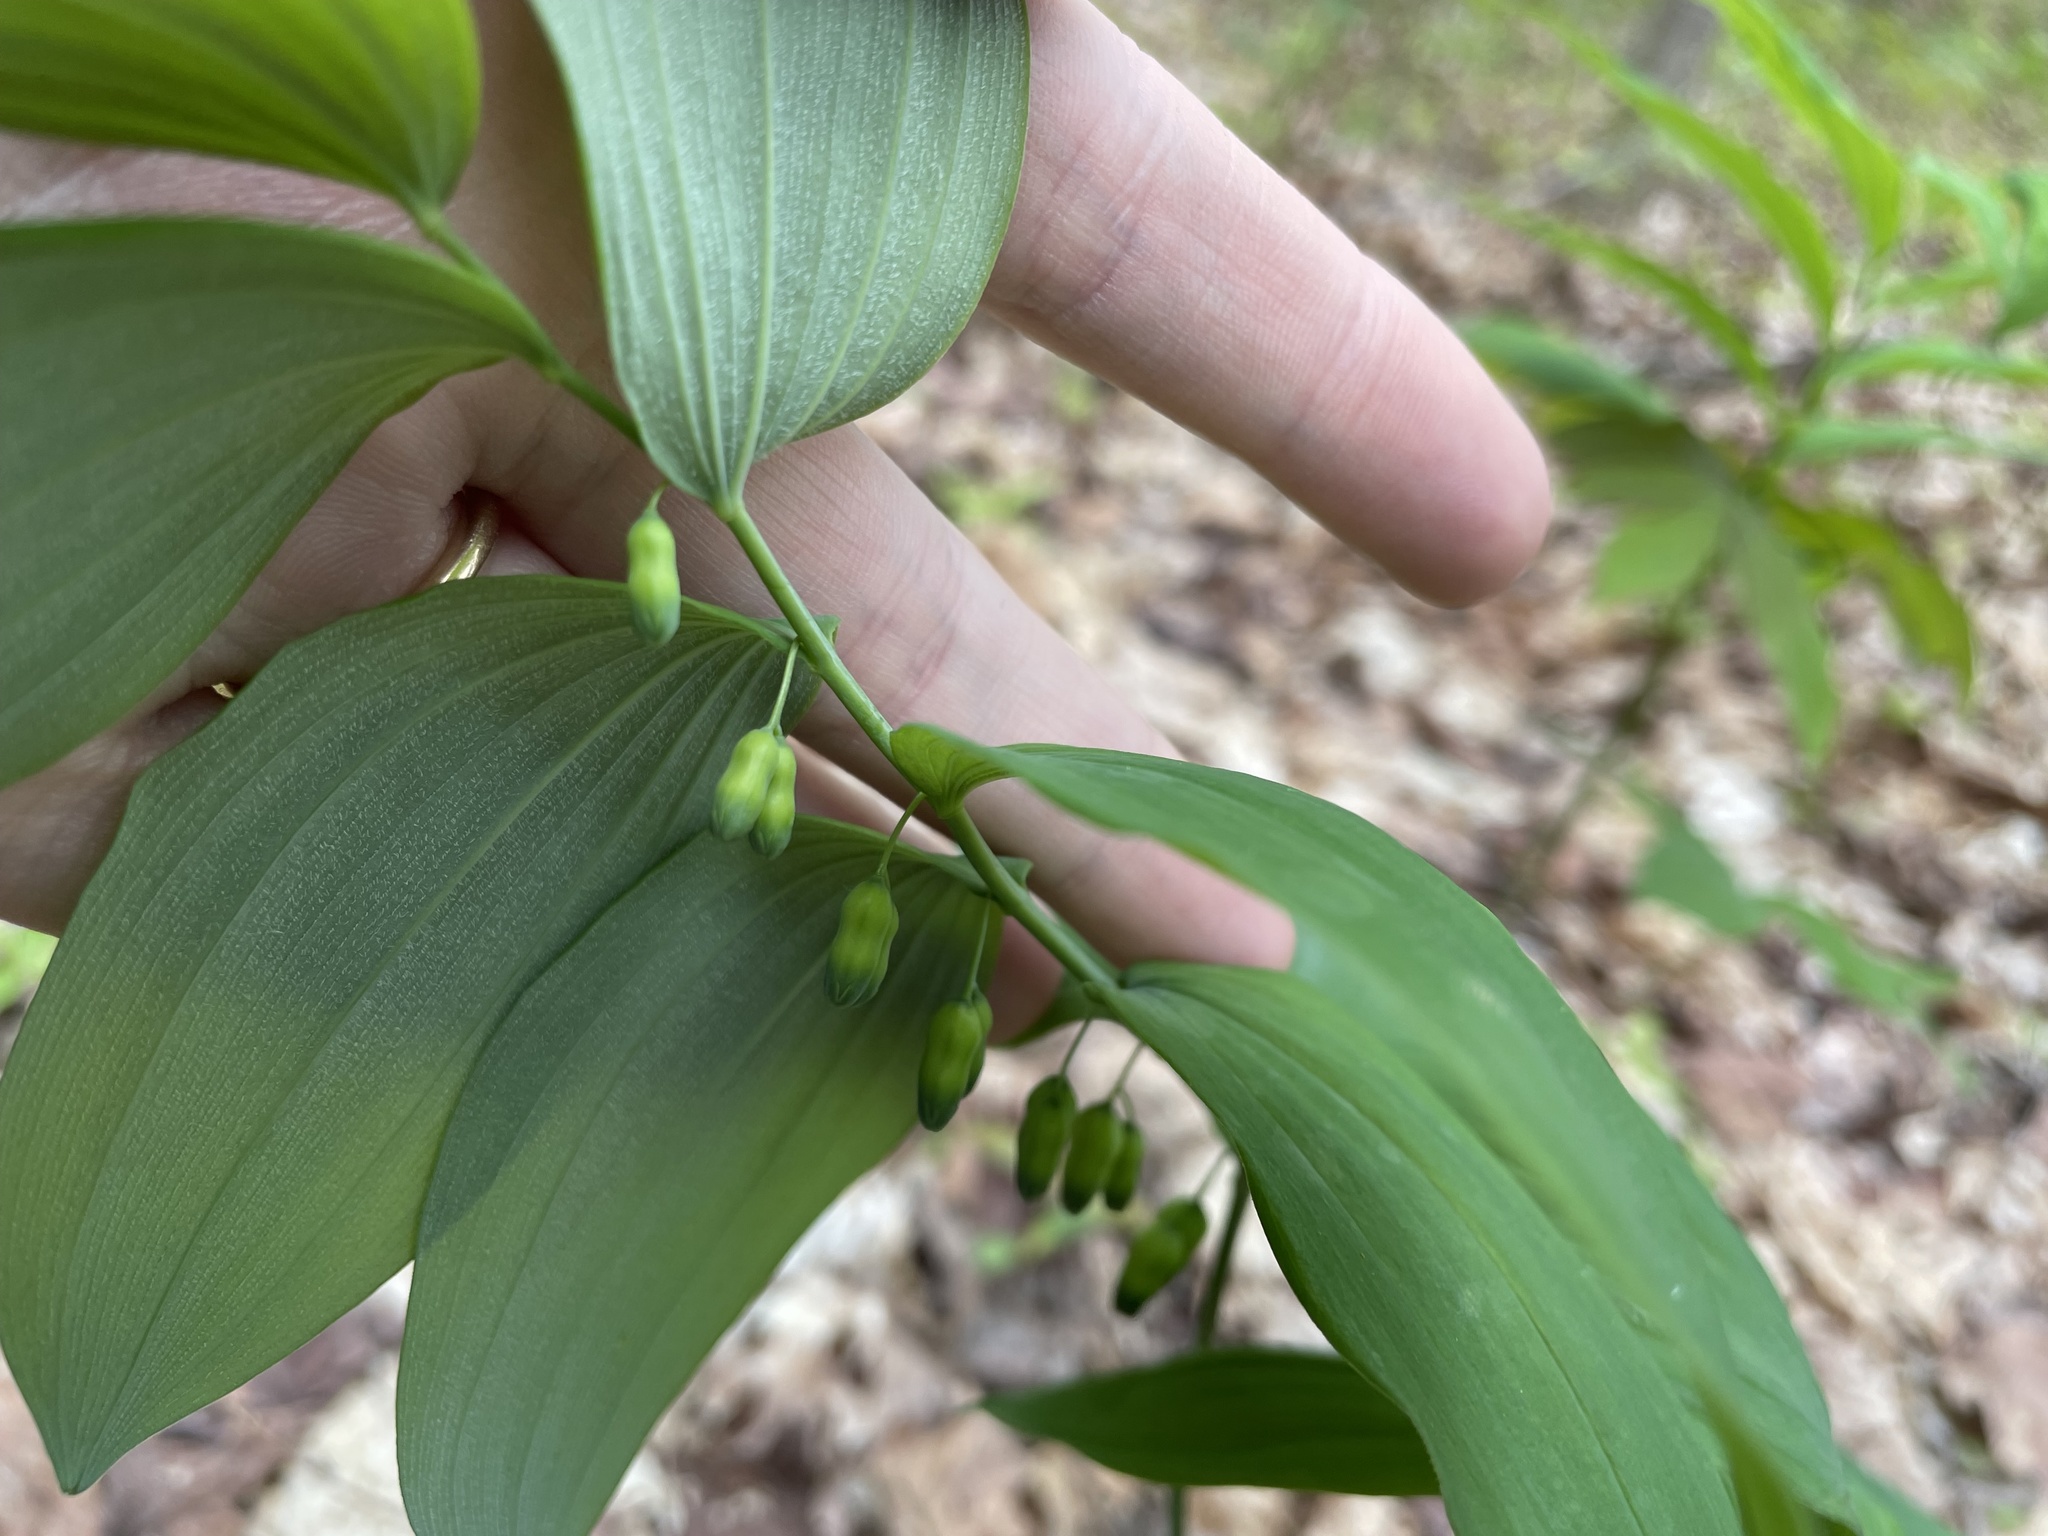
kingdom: Plantae
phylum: Tracheophyta
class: Liliopsida
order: Asparagales
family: Asparagaceae
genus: Polygonatum
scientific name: Polygonatum pubescens
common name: Downy solomon's seal
